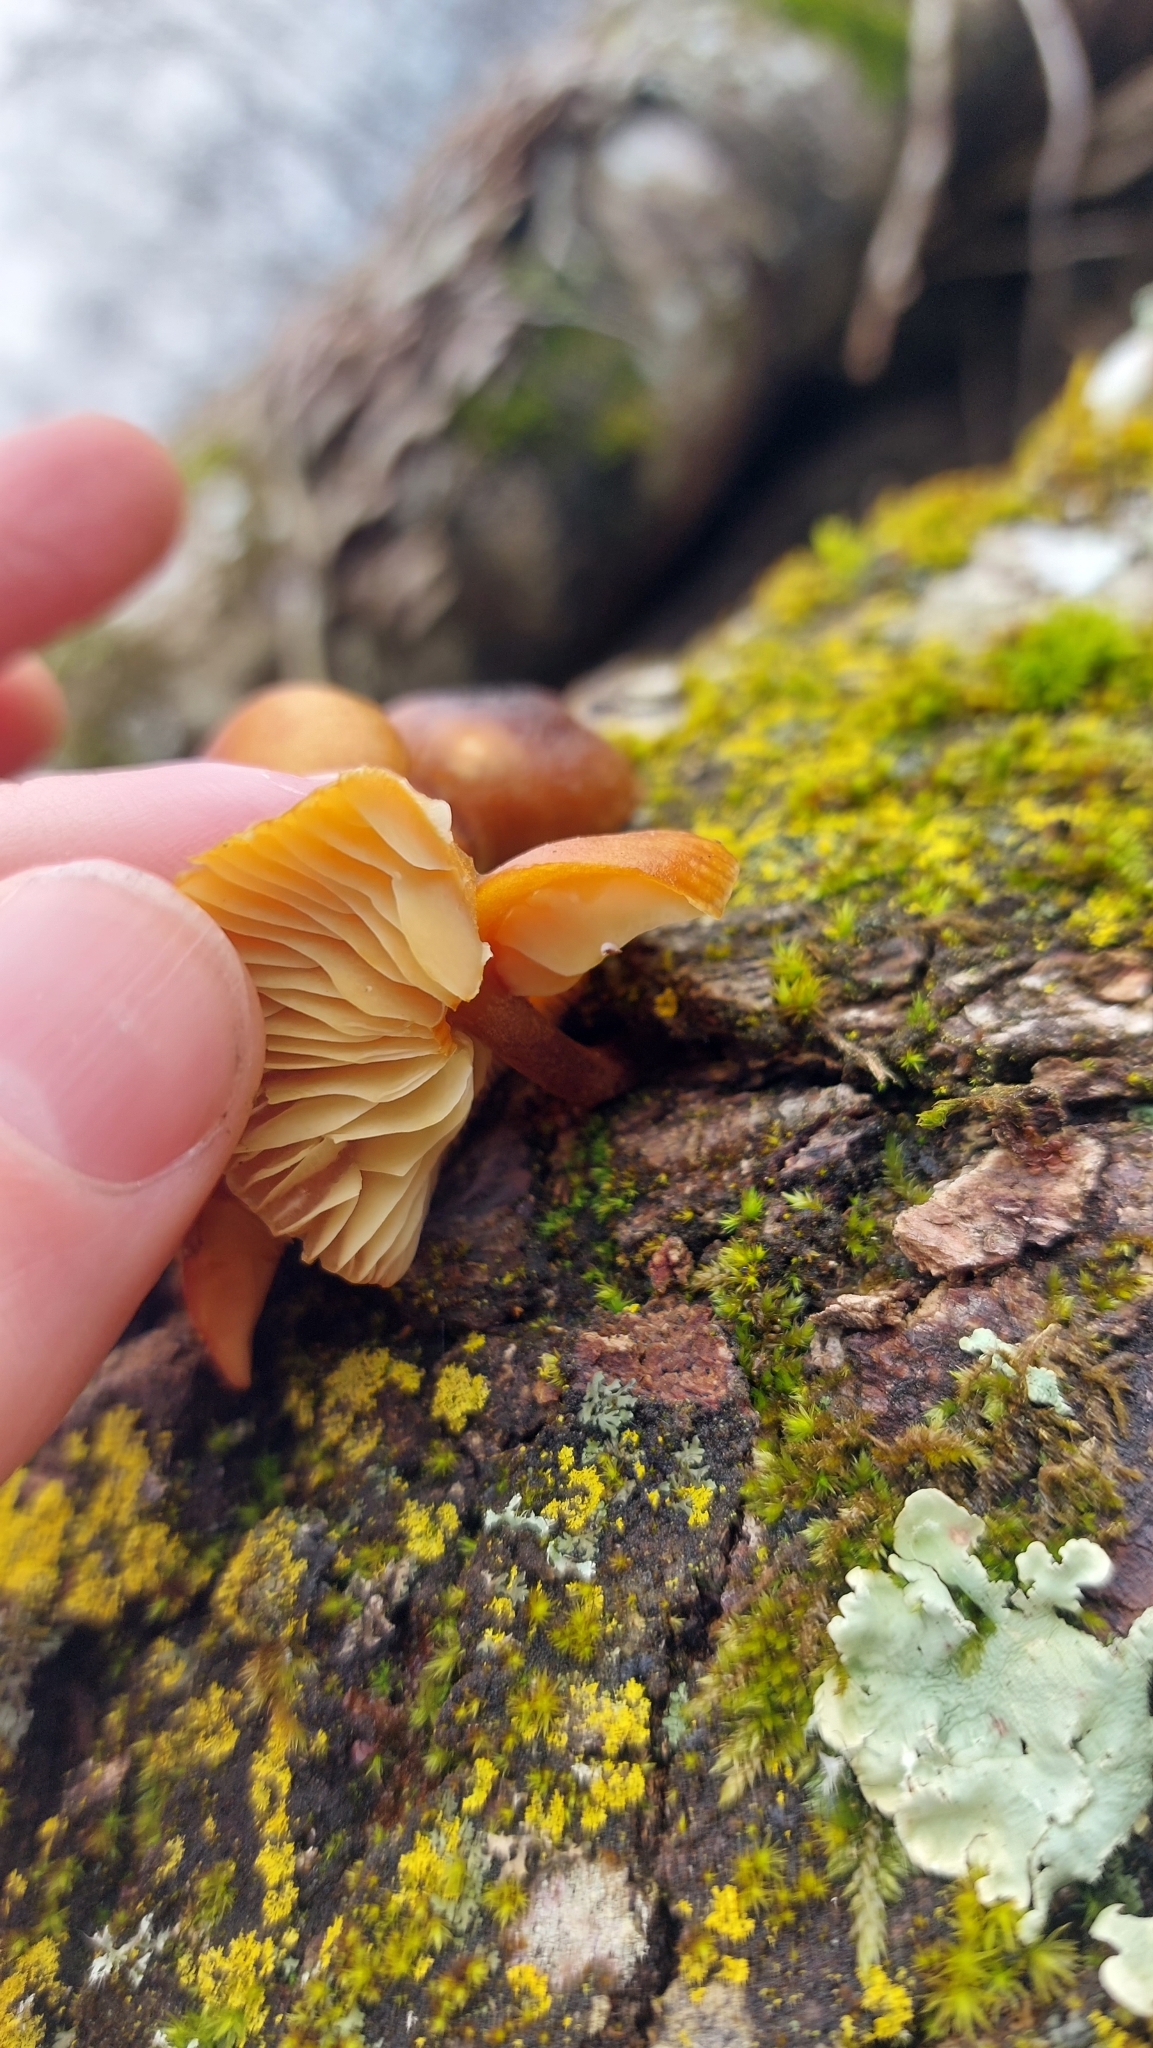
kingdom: Fungi
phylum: Basidiomycota
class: Agaricomycetes
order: Agaricales
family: Physalacriaceae
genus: Flammulina
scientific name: Flammulina
